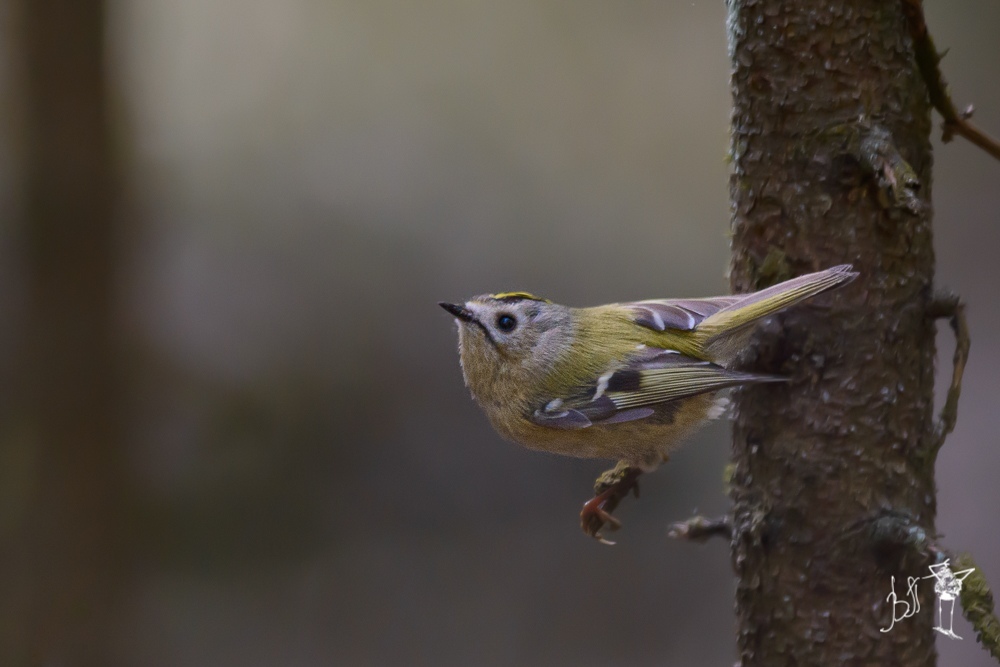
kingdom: Animalia
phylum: Chordata
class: Aves
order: Passeriformes
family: Regulidae
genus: Regulus
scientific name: Regulus regulus
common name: Goldcrest
